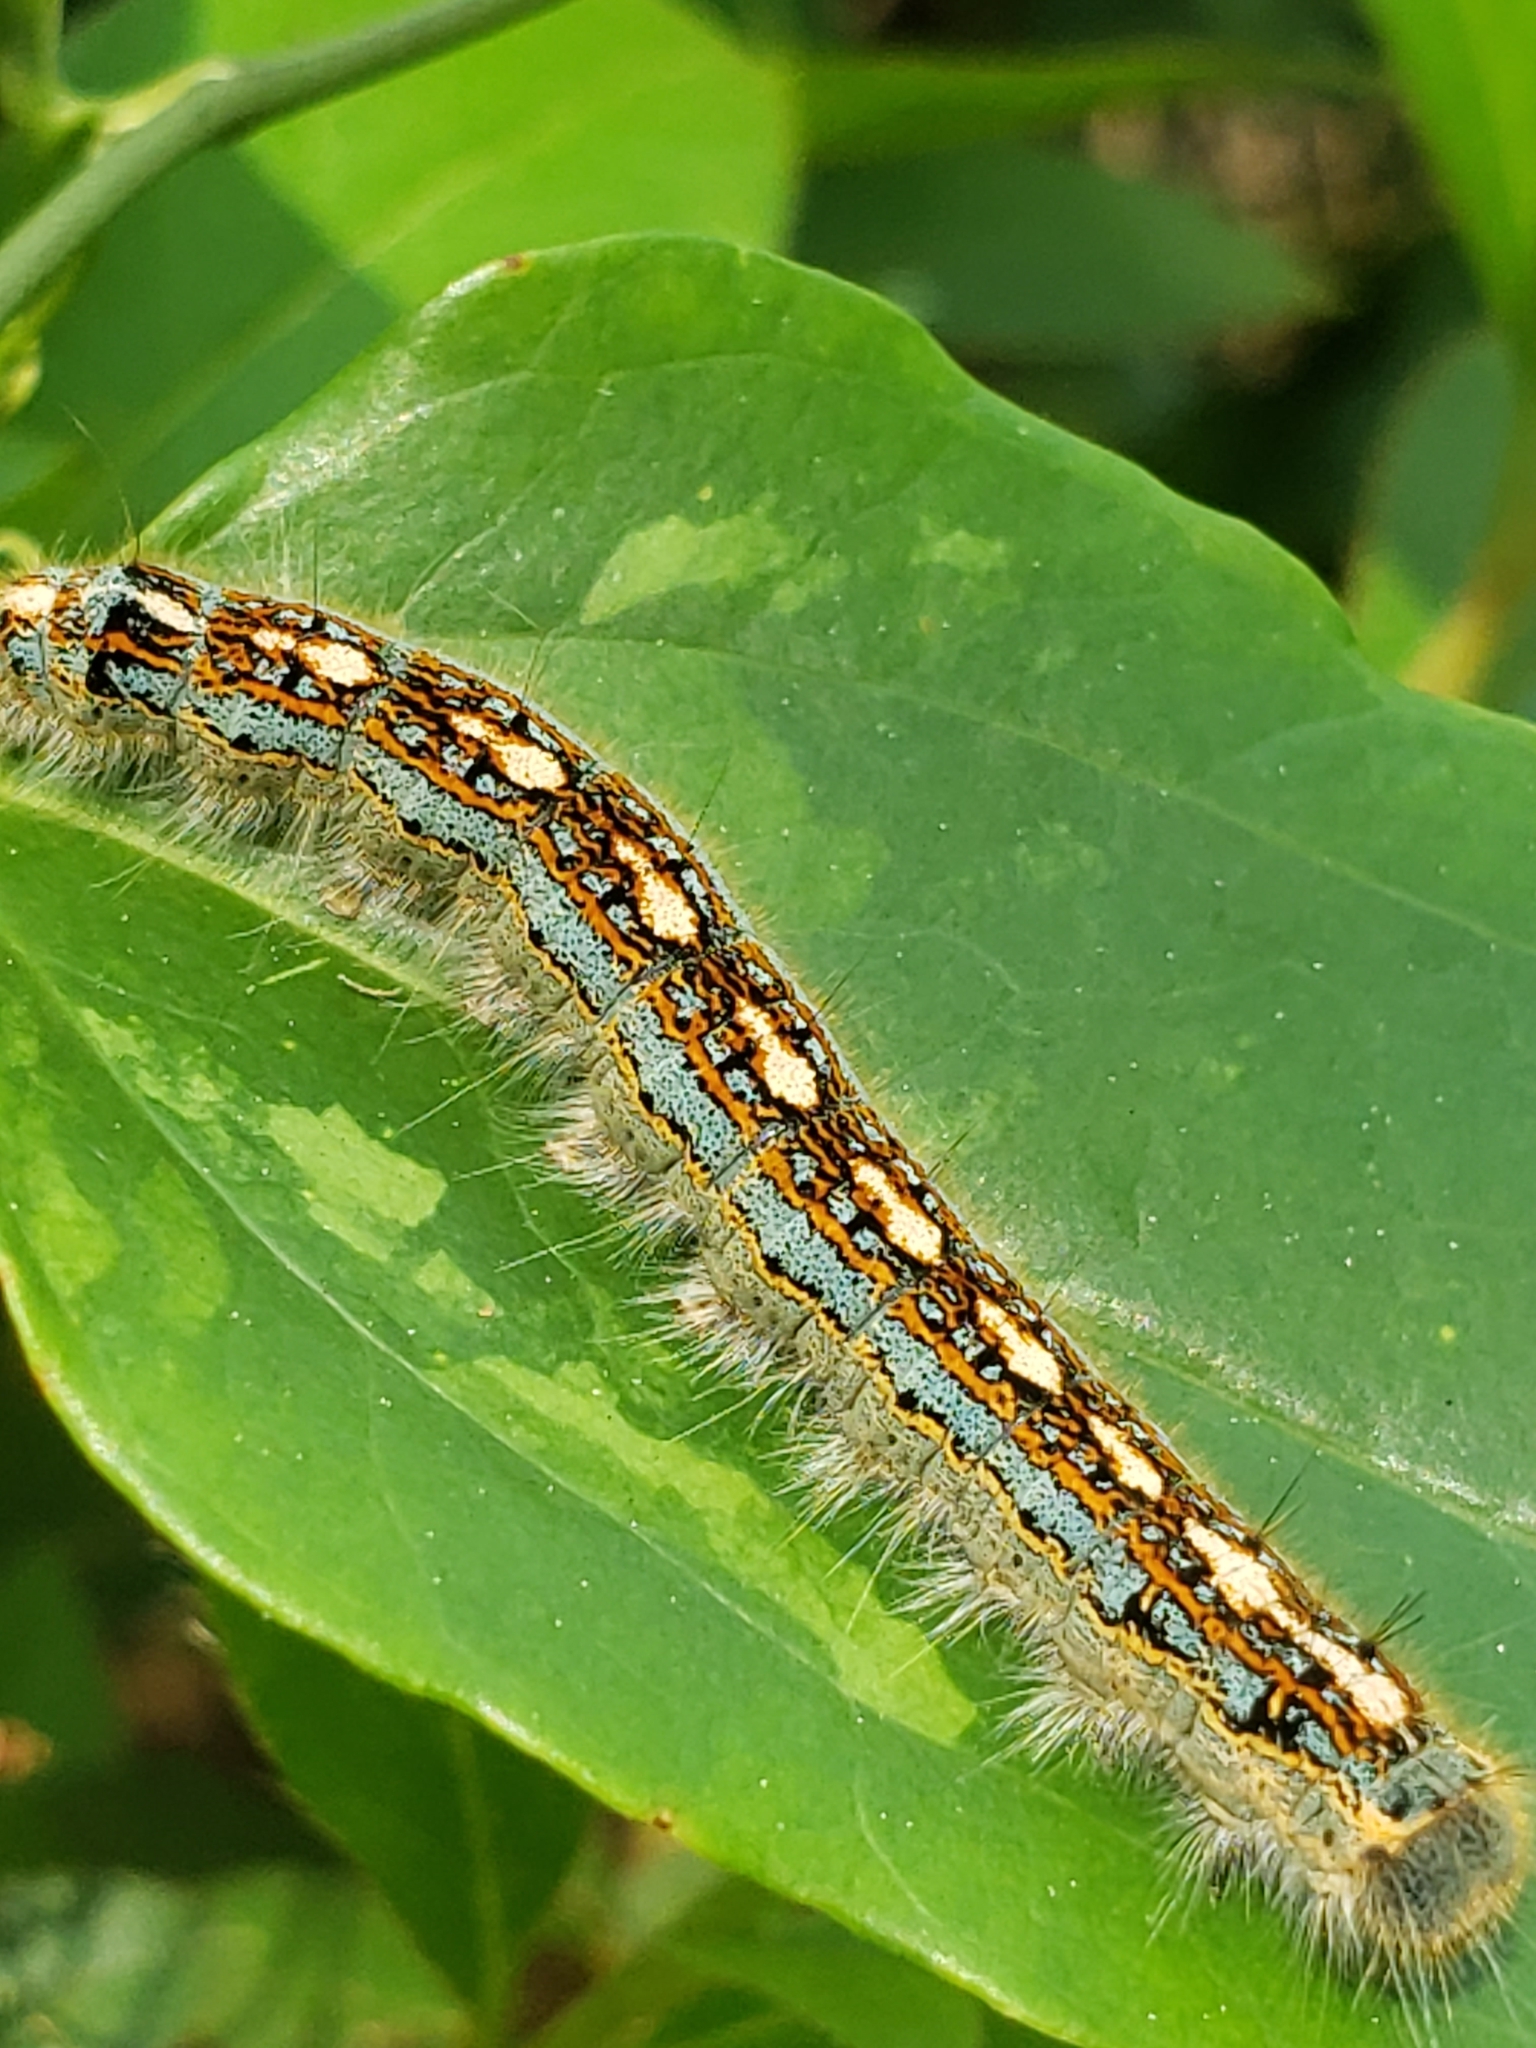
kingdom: Animalia
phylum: Arthropoda
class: Insecta
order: Lepidoptera
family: Lasiocampidae
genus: Malacosoma
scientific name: Malacosoma disstria
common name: Forest tent caterpillar
